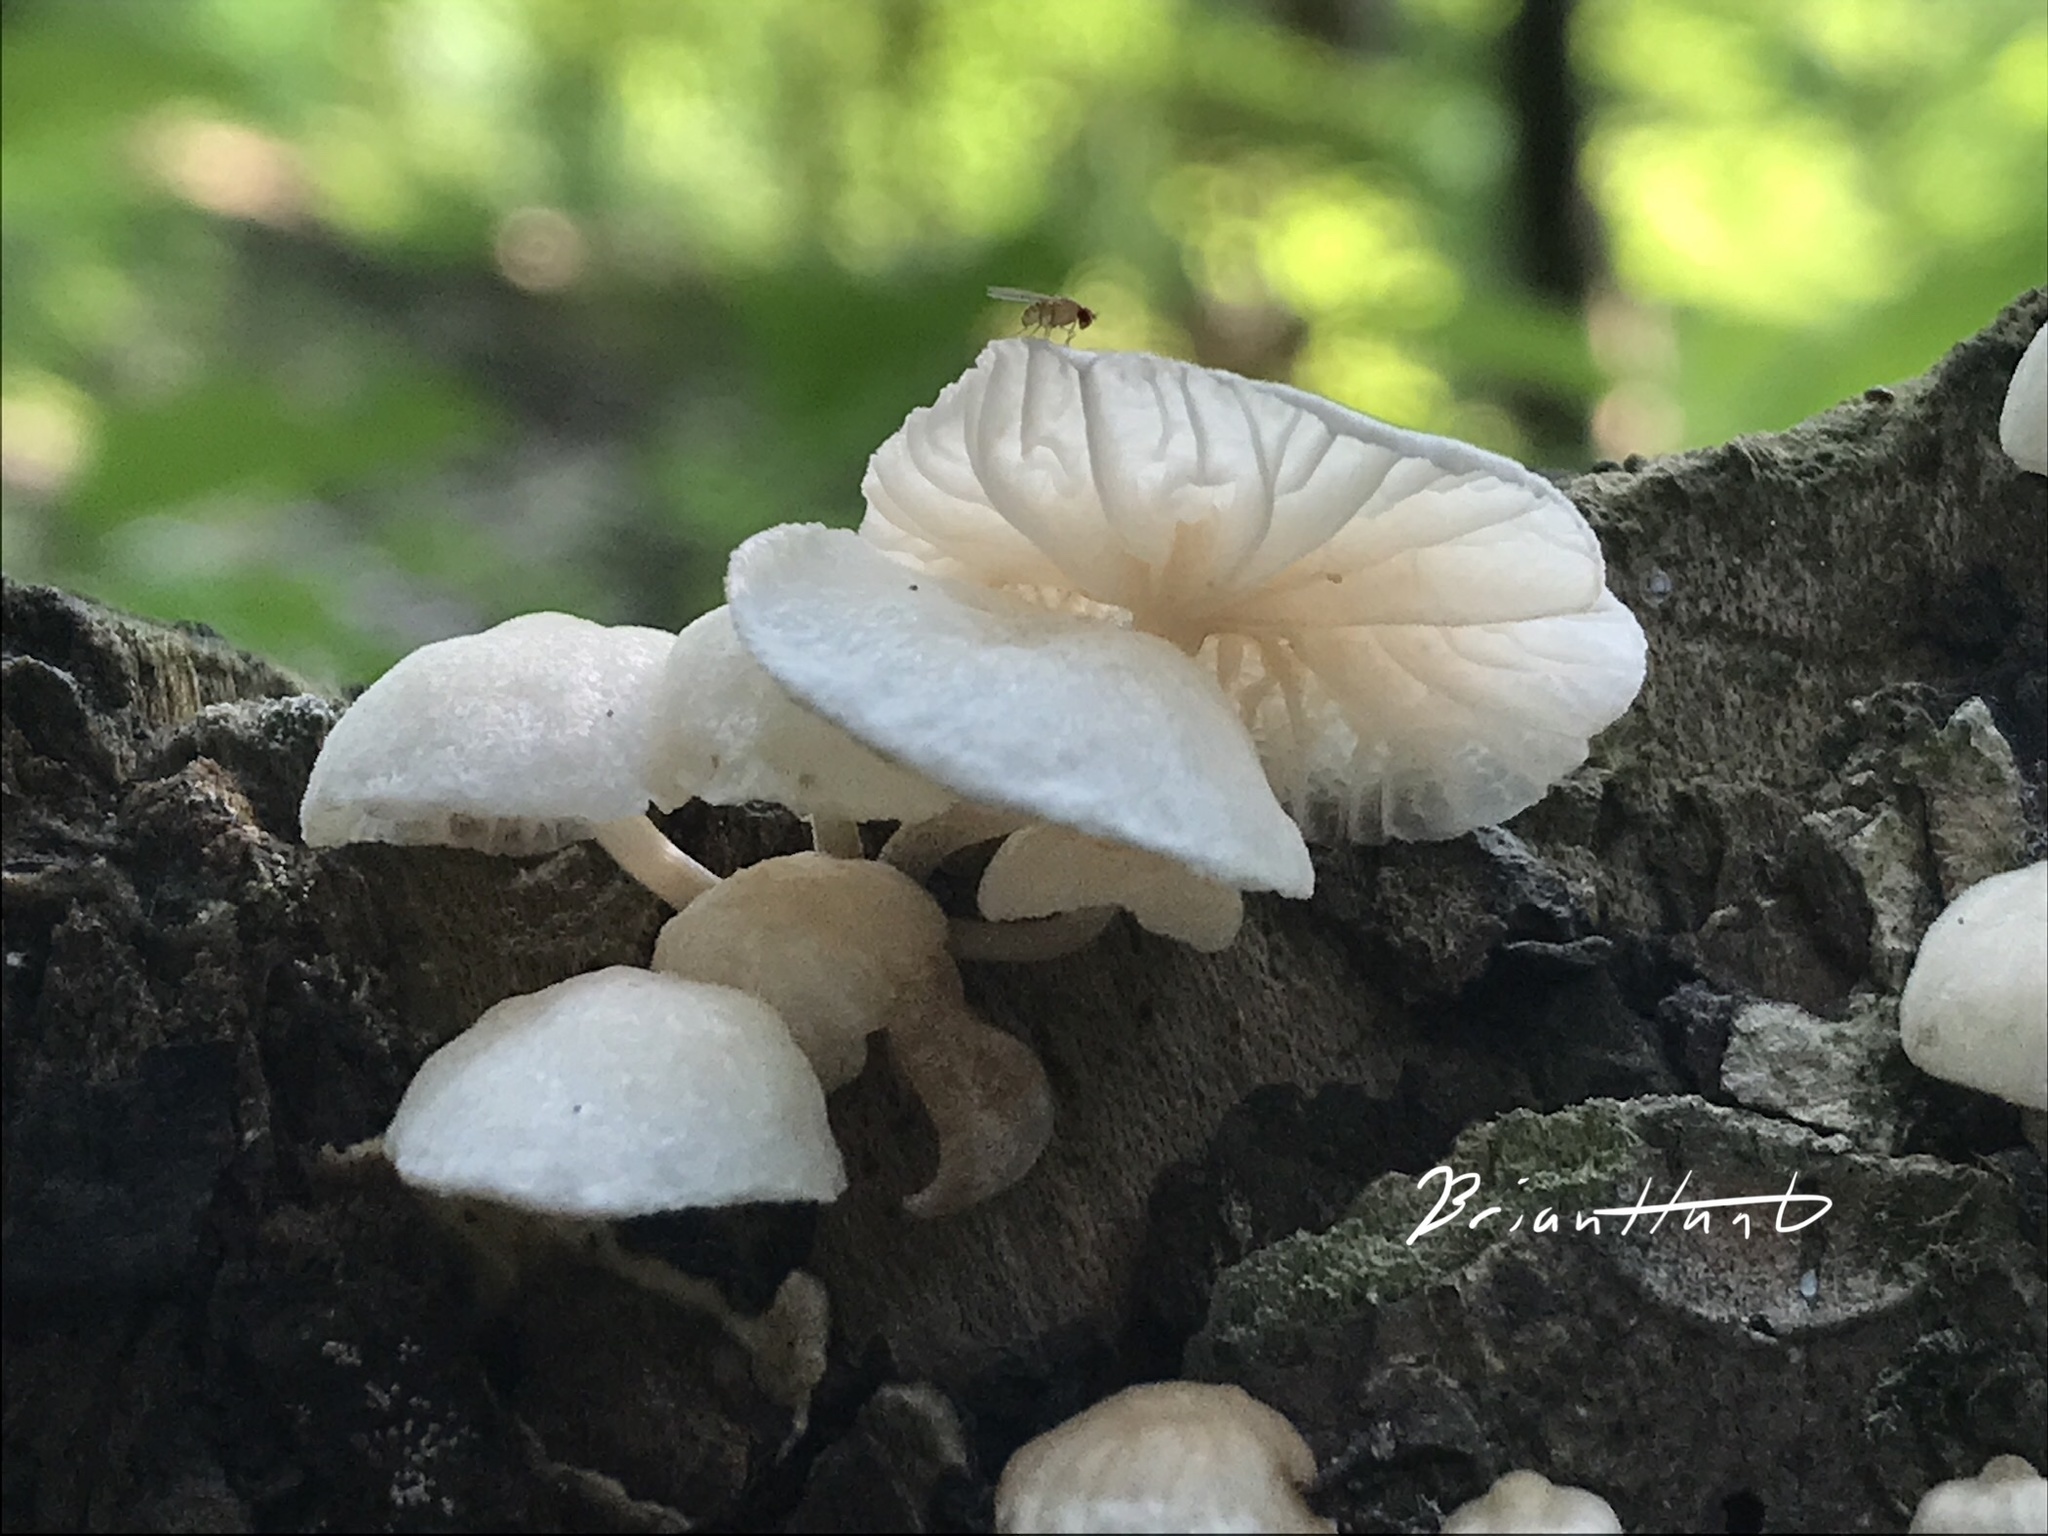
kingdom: Fungi
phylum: Basidiomycota
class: Agaricomycetes
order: Agaricales
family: Omphalotaceae
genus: Marasmiellus
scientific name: Marasmiellus candidus
